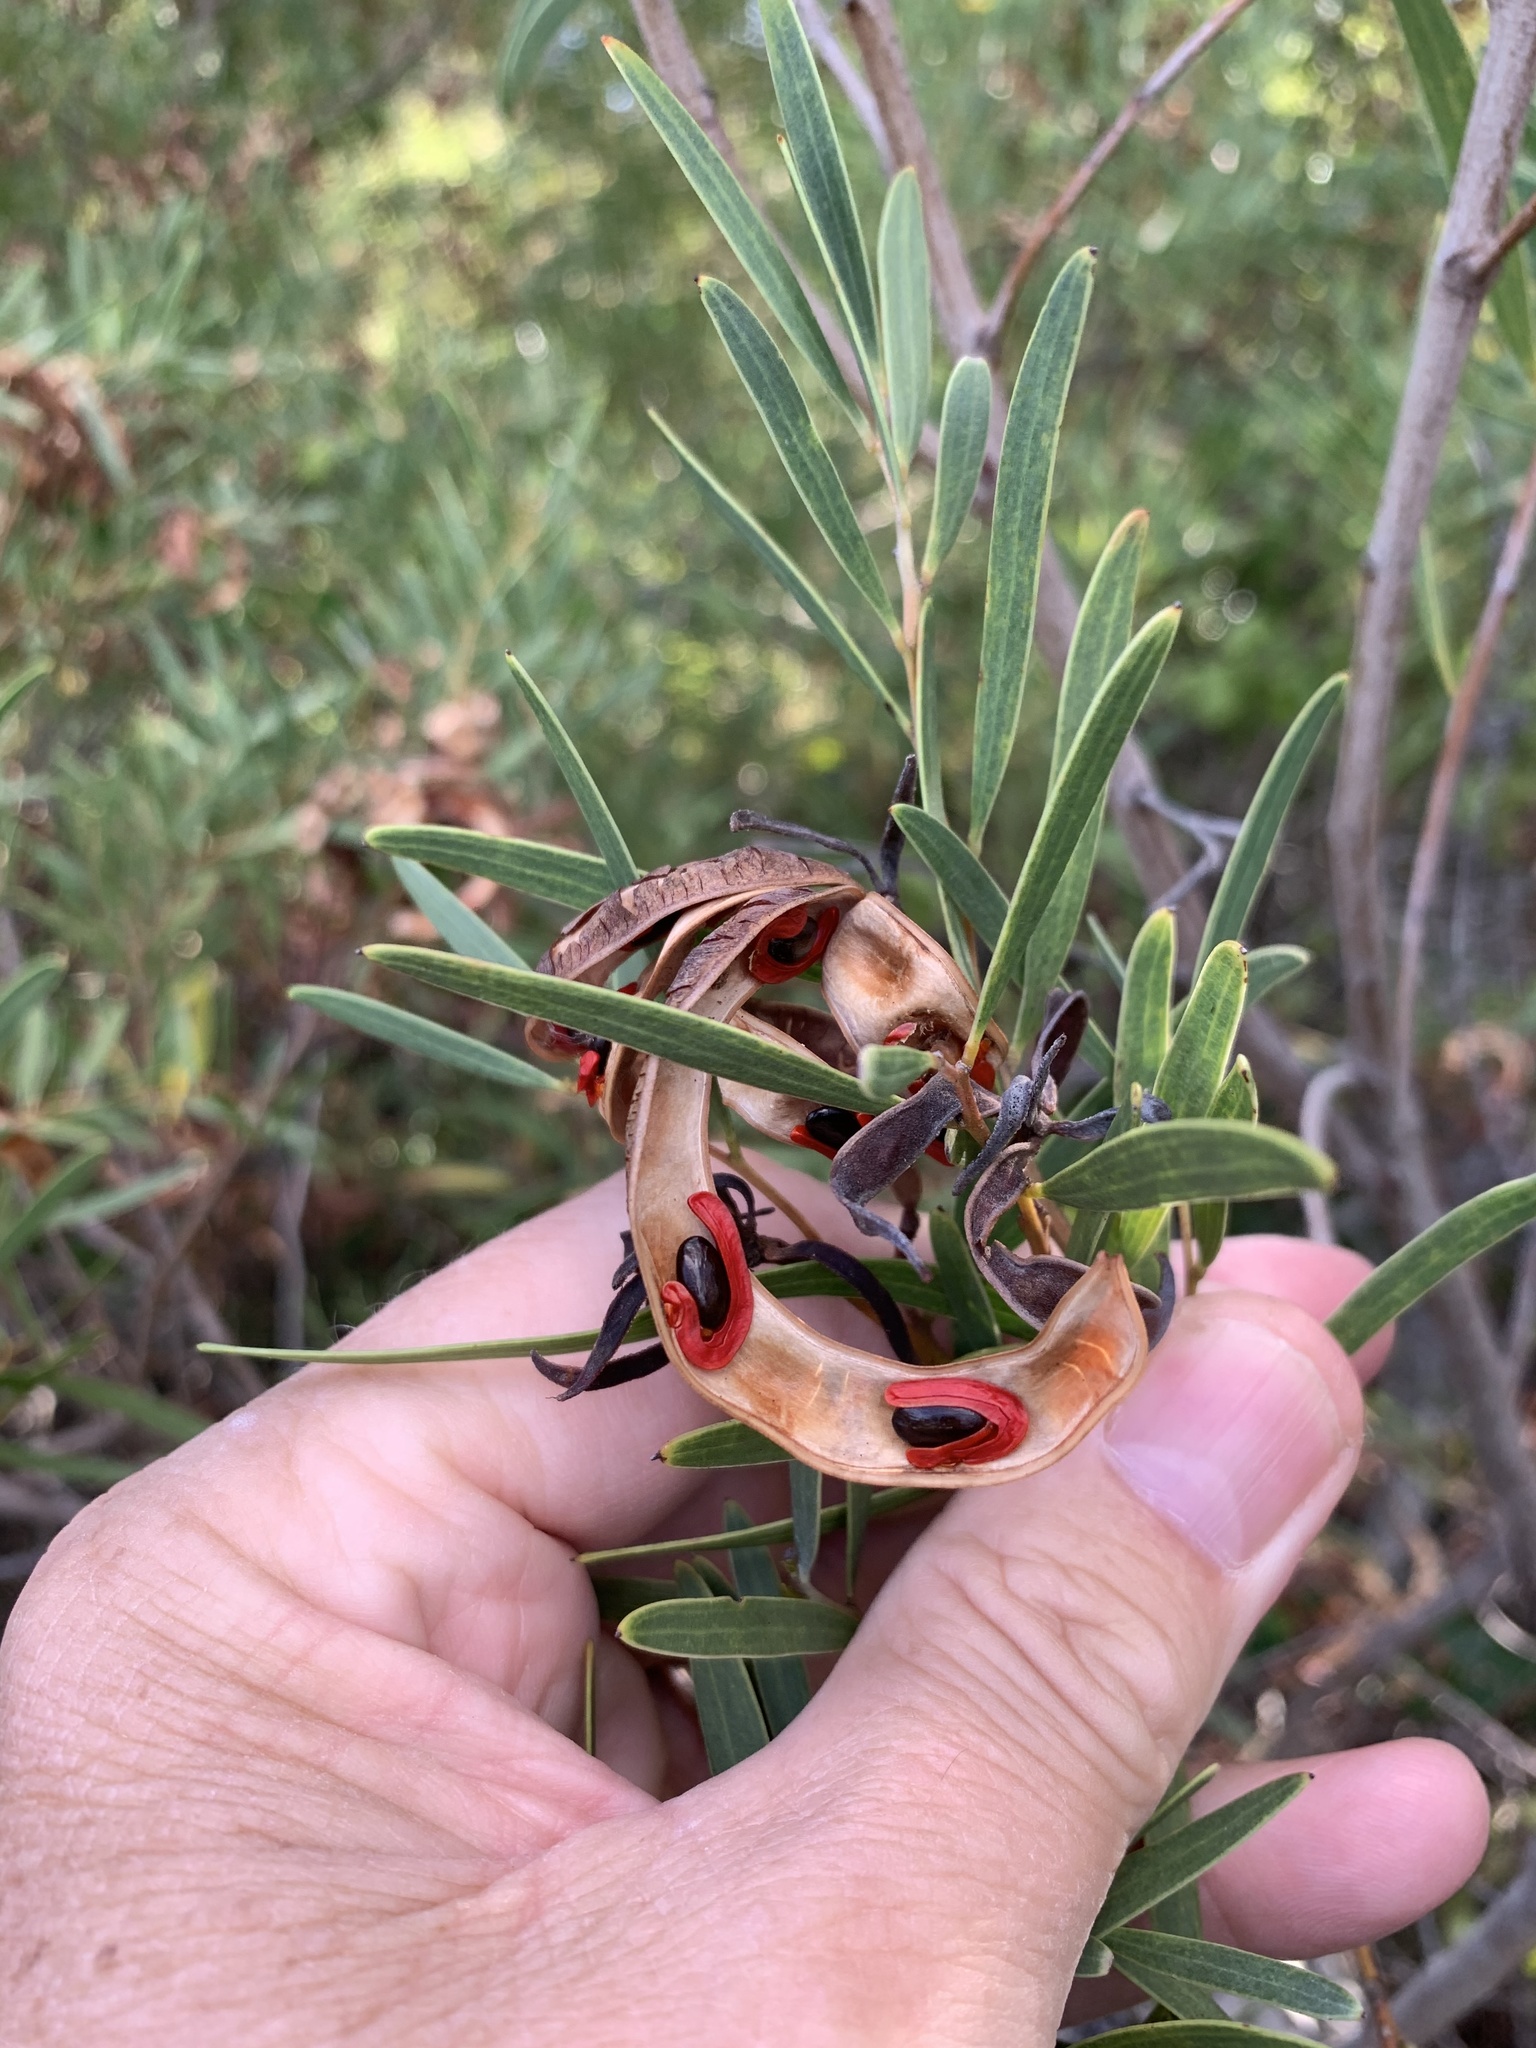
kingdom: Plantae
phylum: Tracheophyta
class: Magnoliopsida
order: Fabales
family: Fabaceae
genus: Acacia
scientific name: Acacia cyclops
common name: Coastal wattle
